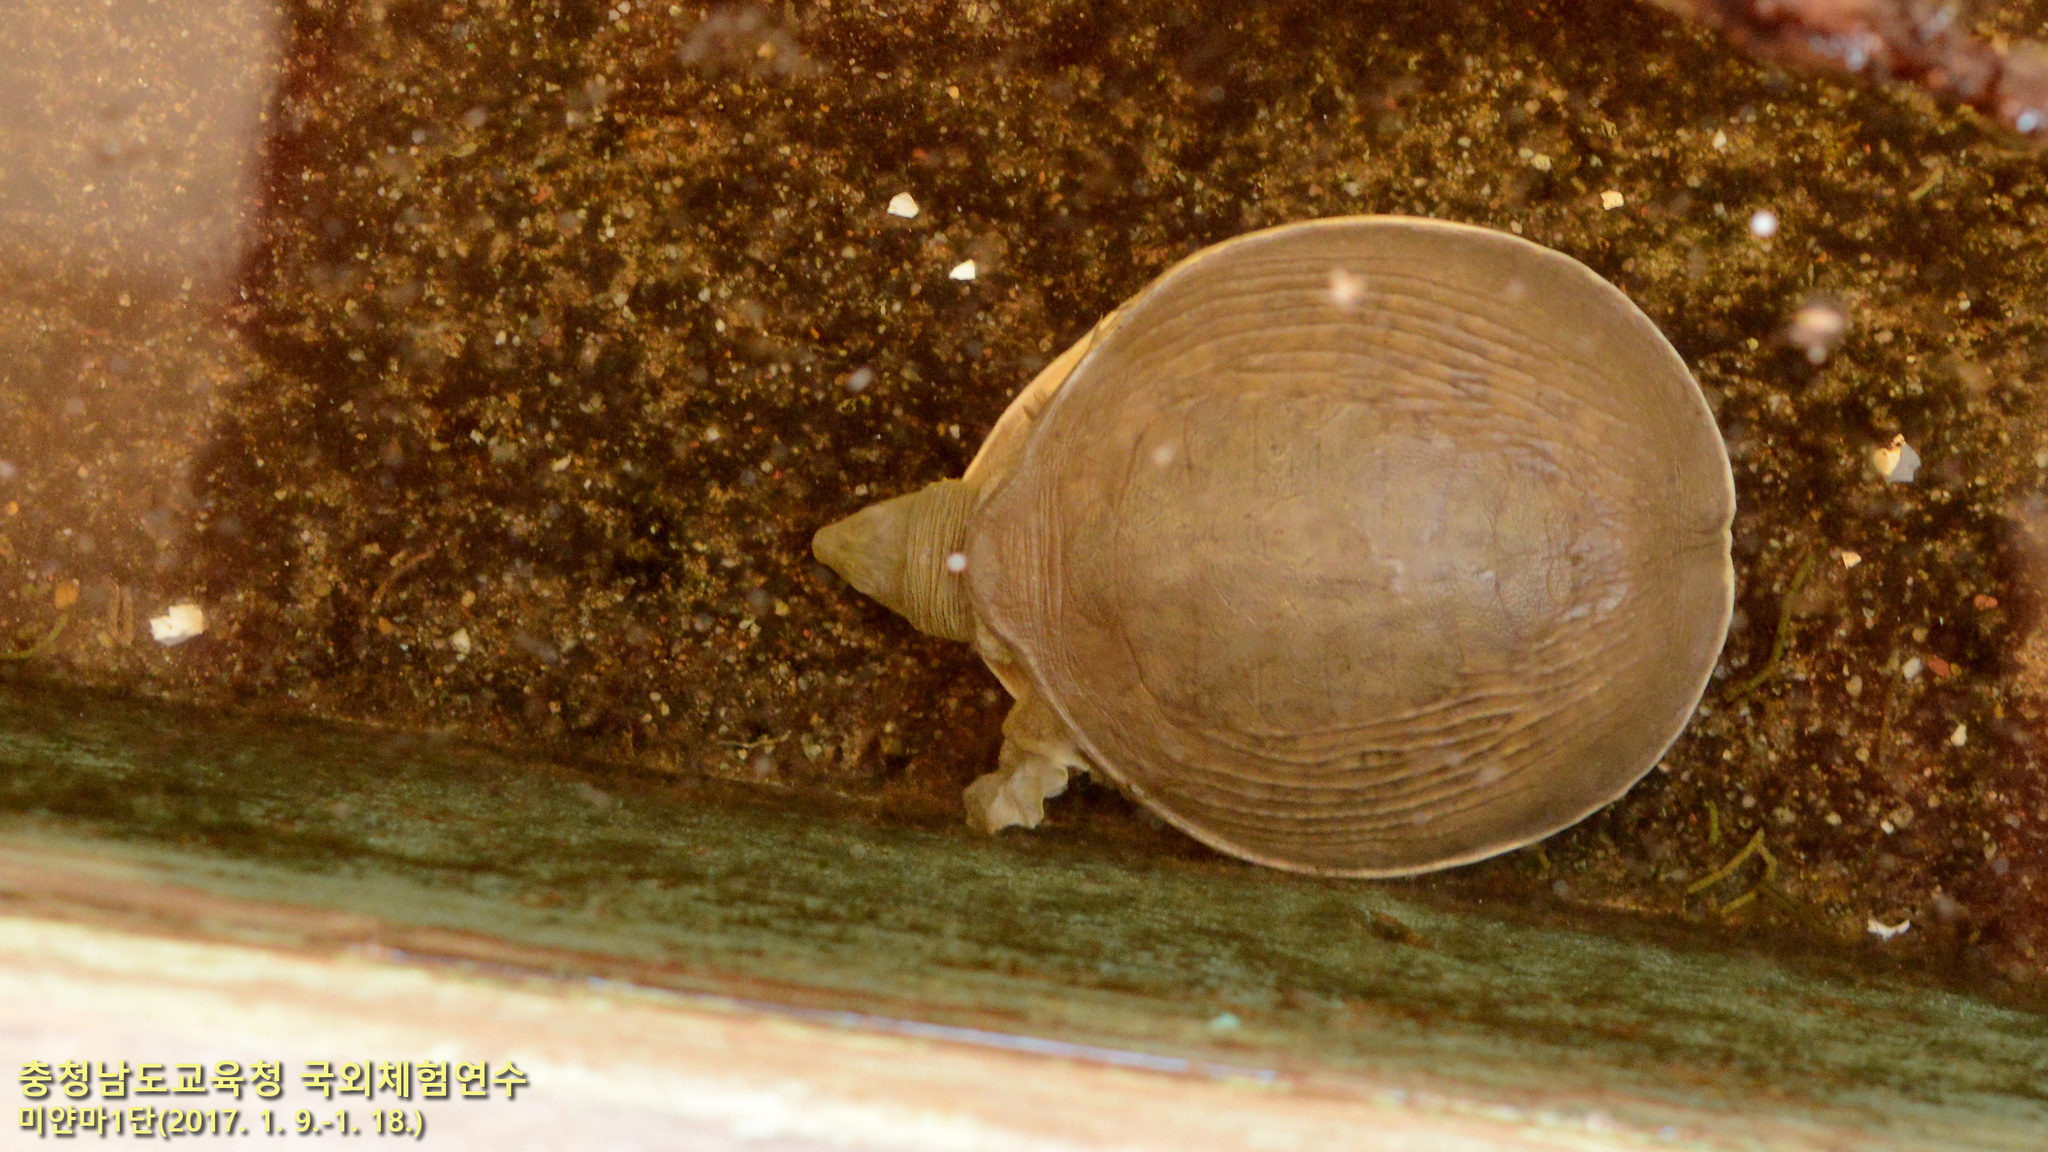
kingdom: Animalia
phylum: Chordata
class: Testudines
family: Trionychidae
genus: Lissemys
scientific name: Lissemys scutata
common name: Burmese flapshell turtle
